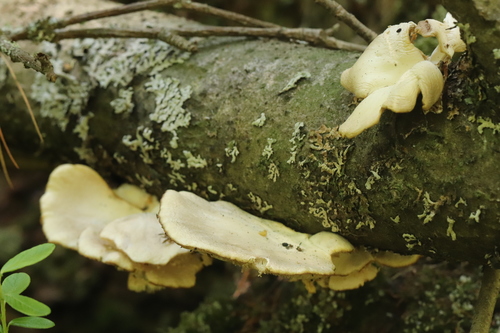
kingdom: Fungi
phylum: Basidiomycota
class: Agaricomycetes
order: Agaricales
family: Pleurotaceae
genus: Pleurotus
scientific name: Pleurotus pulmonarius
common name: Pale oyster
